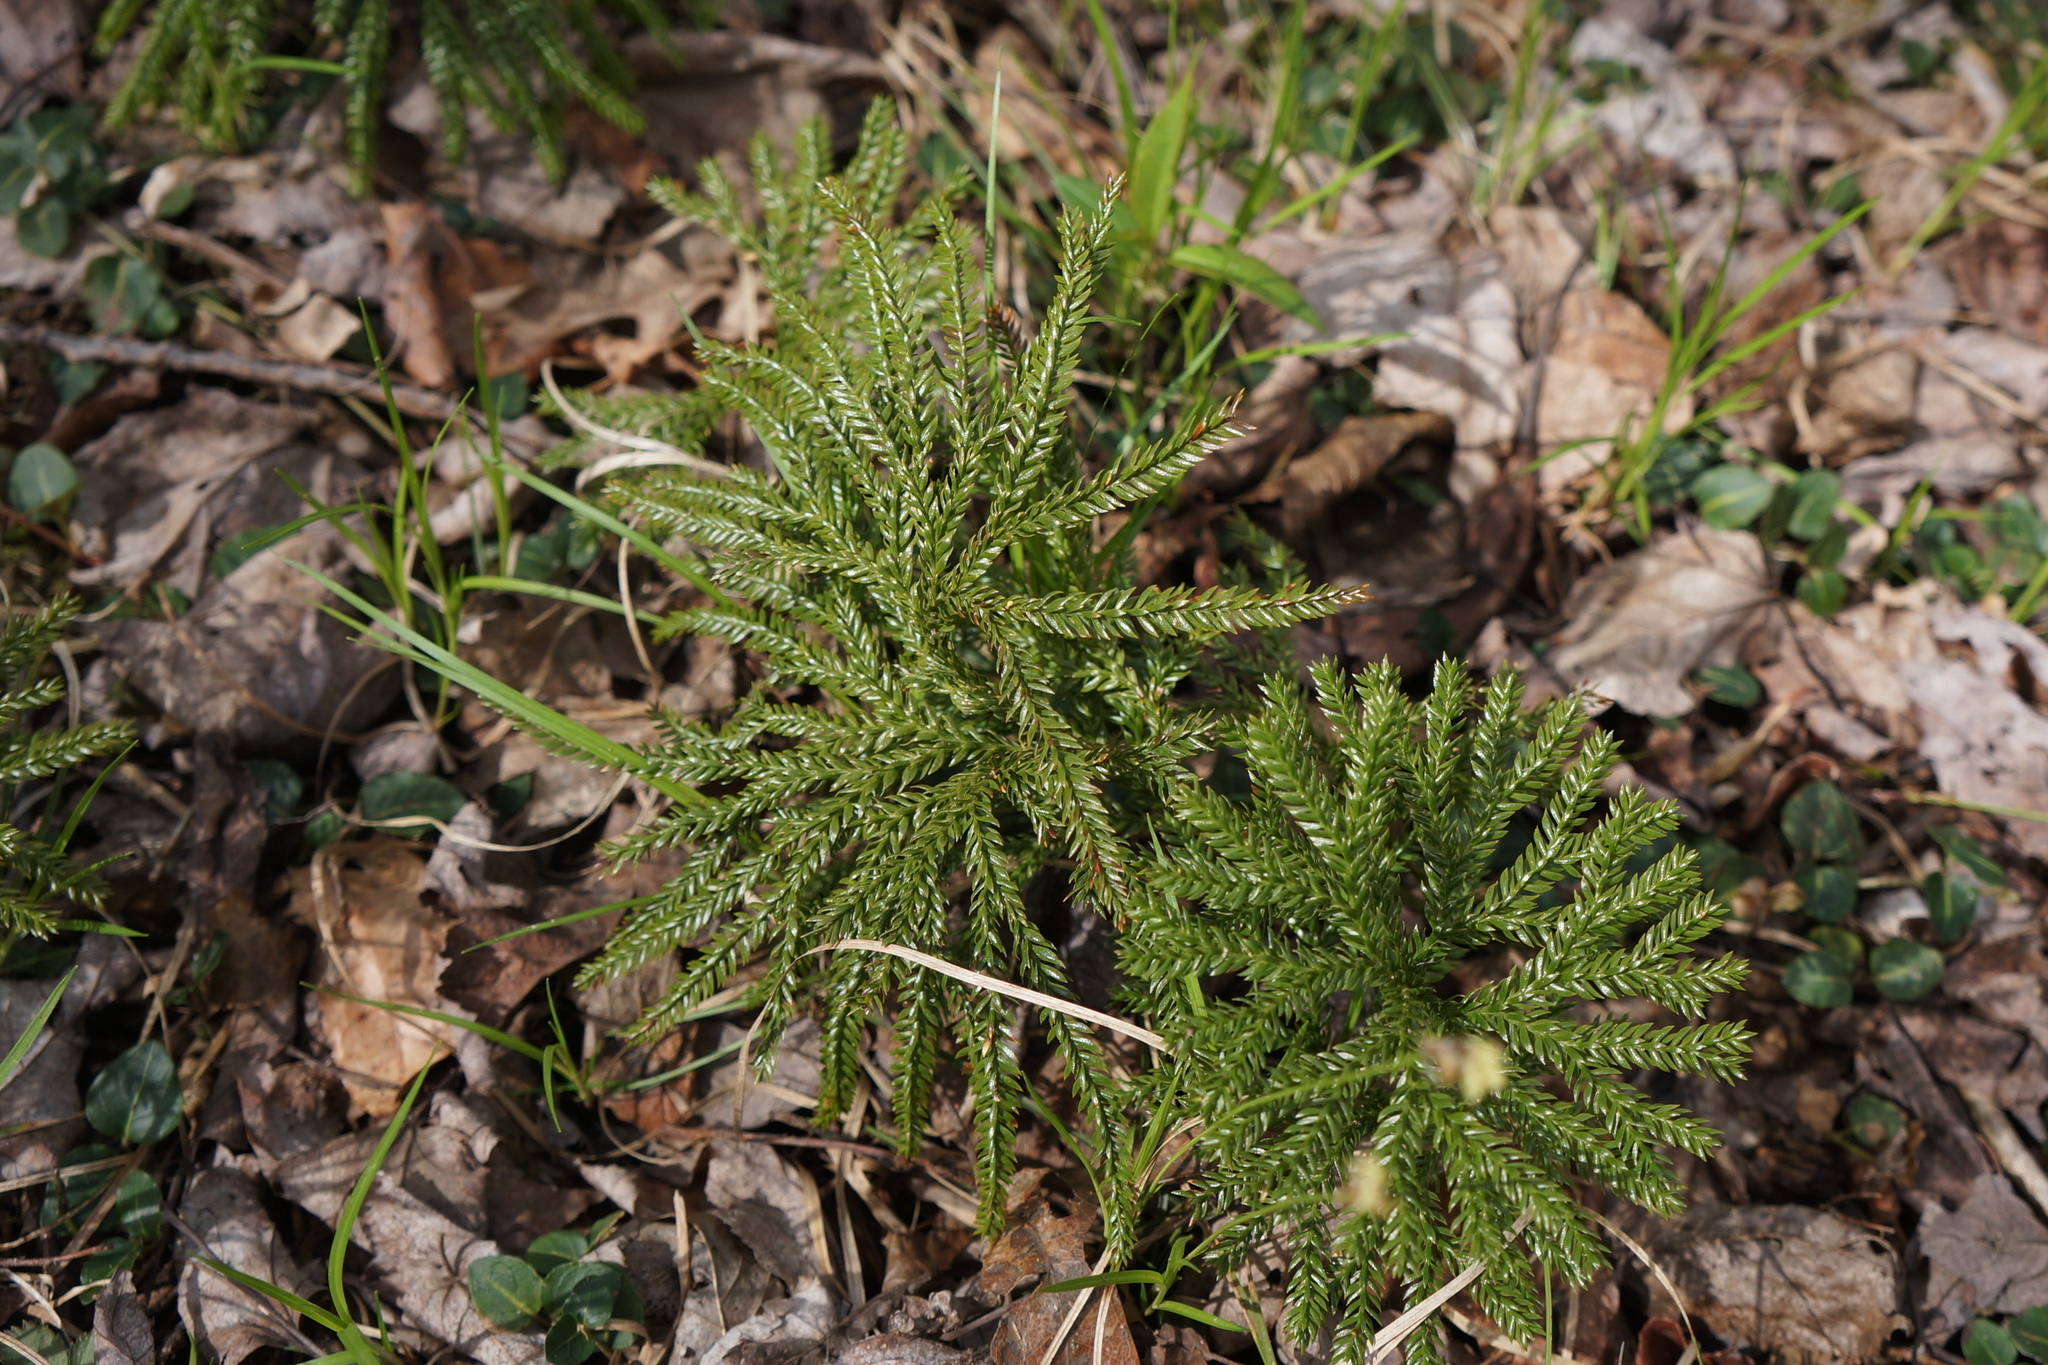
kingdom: Plantae
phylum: Tracheophyta
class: Lycopodiopsida
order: Lycopodiales
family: Lycopodiaceae
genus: Dendrolycopodium
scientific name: Dendrolycopodium obscurum
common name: Common ground-pine
